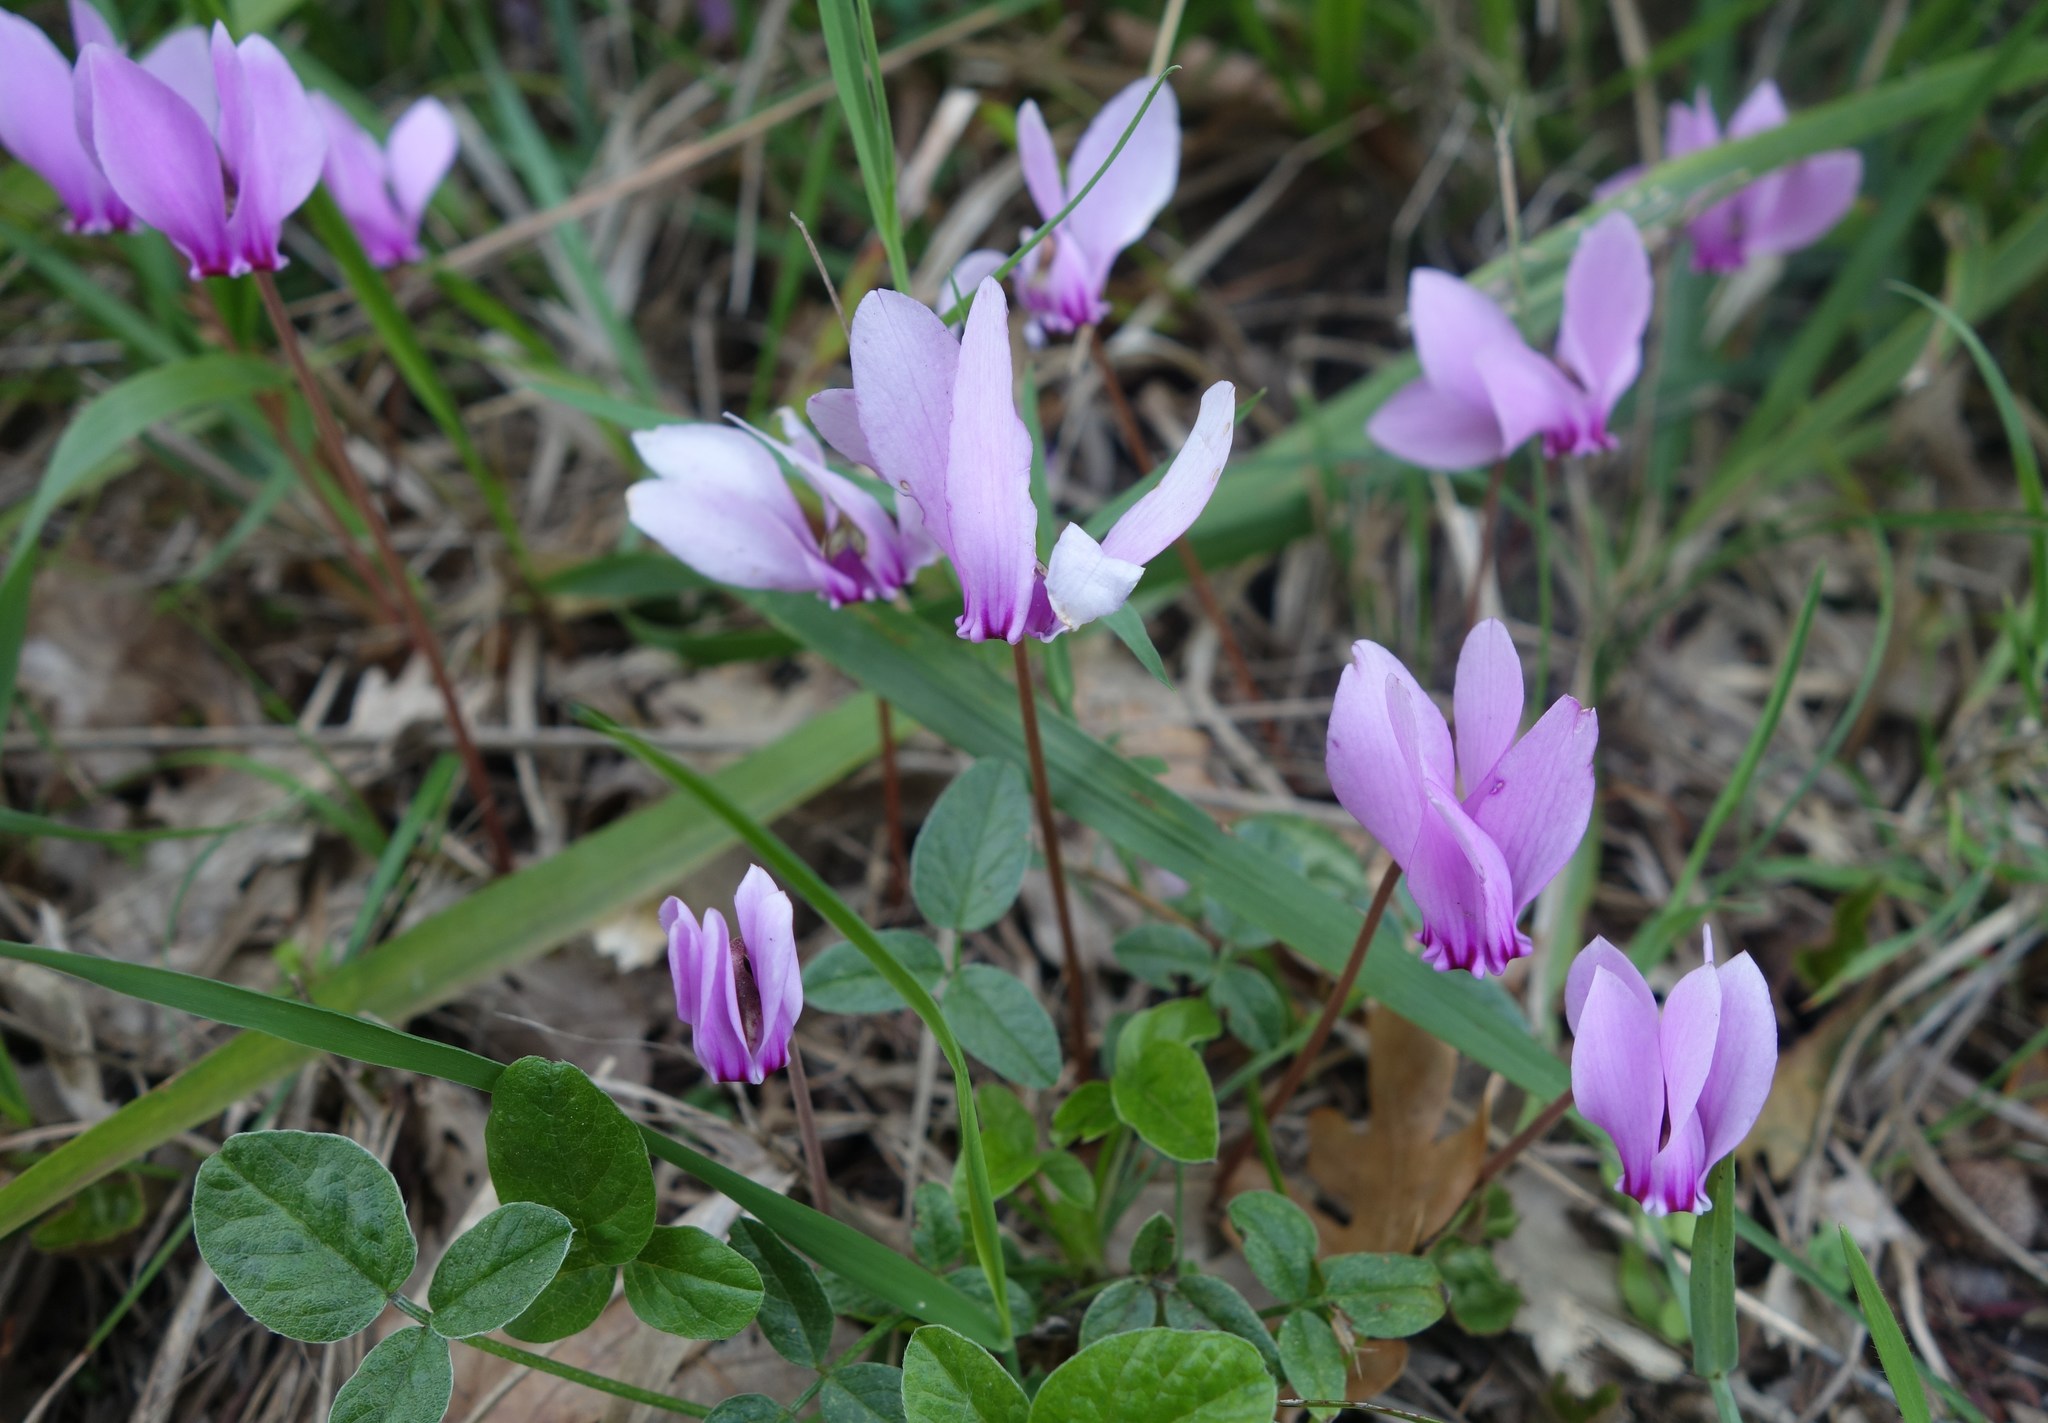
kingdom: Plantae
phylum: Tracheophyta
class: Magnoliopsida
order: Ericales
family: Primulaceae
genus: Cyclamen
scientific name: Cyclamen hederifolium
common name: Sowbread
